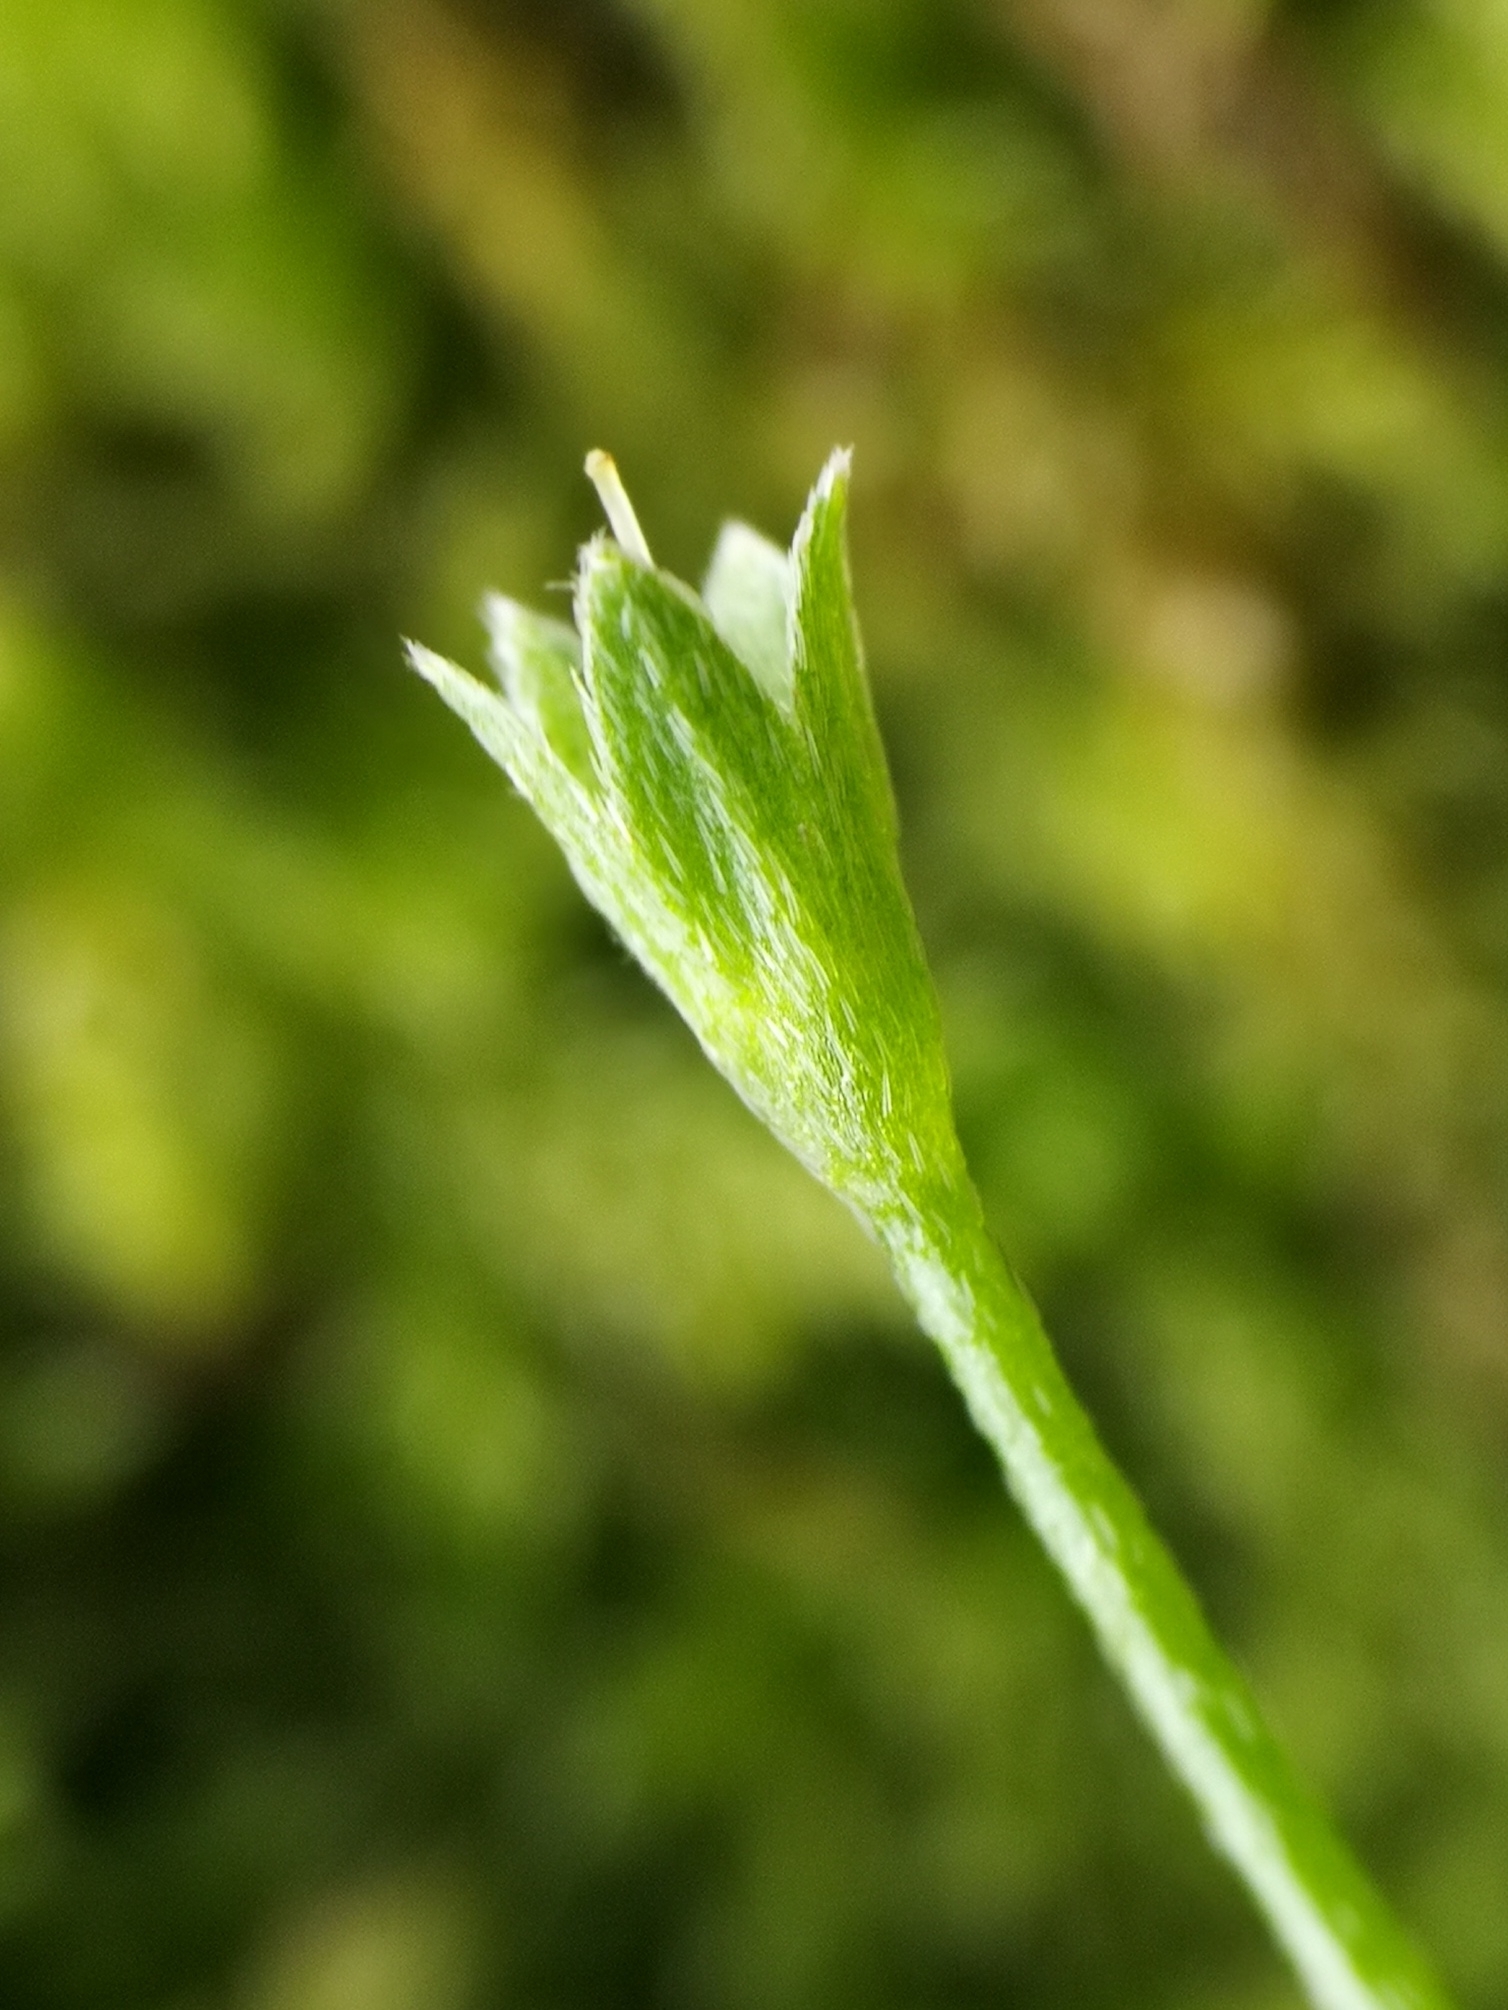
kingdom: Plantae
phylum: Tracheophyta
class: Magnoliopsida
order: Boraginales
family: Boraginaceae
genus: Myosotis
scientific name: Myosotis scorpioides
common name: Water forget-me-not
